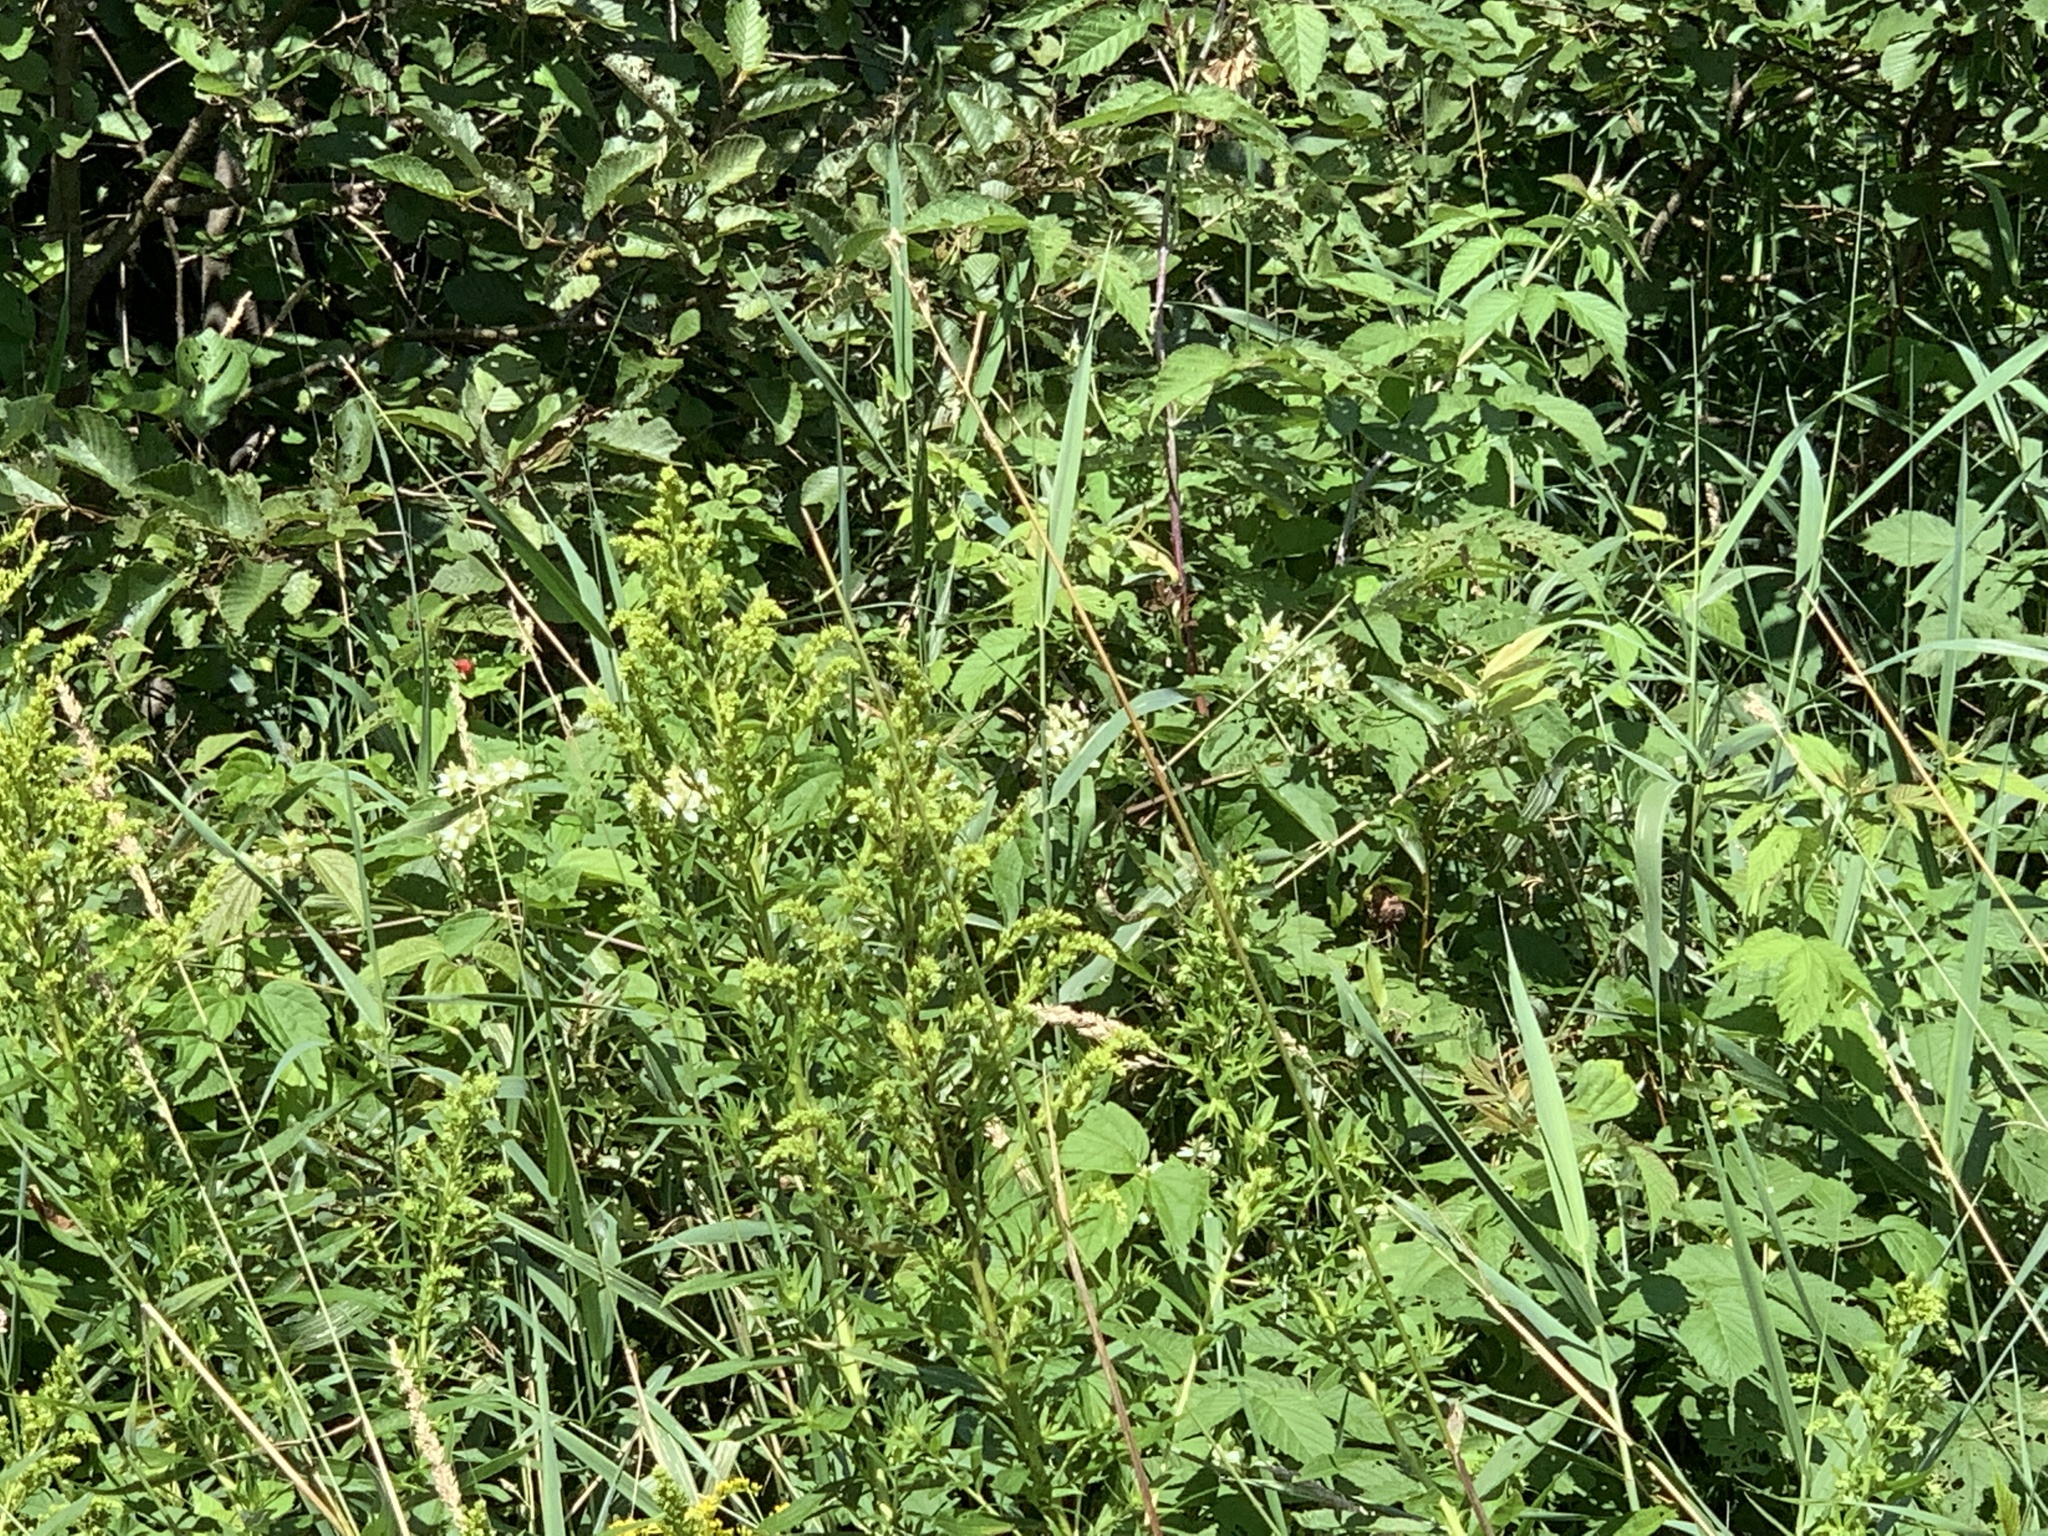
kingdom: Plantae
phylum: Tracheophyta
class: Magnoliopsida
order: Ranunculales
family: Ranunculaceae
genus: Clematis
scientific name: Clematis virginiana
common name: Virgin's-bower
